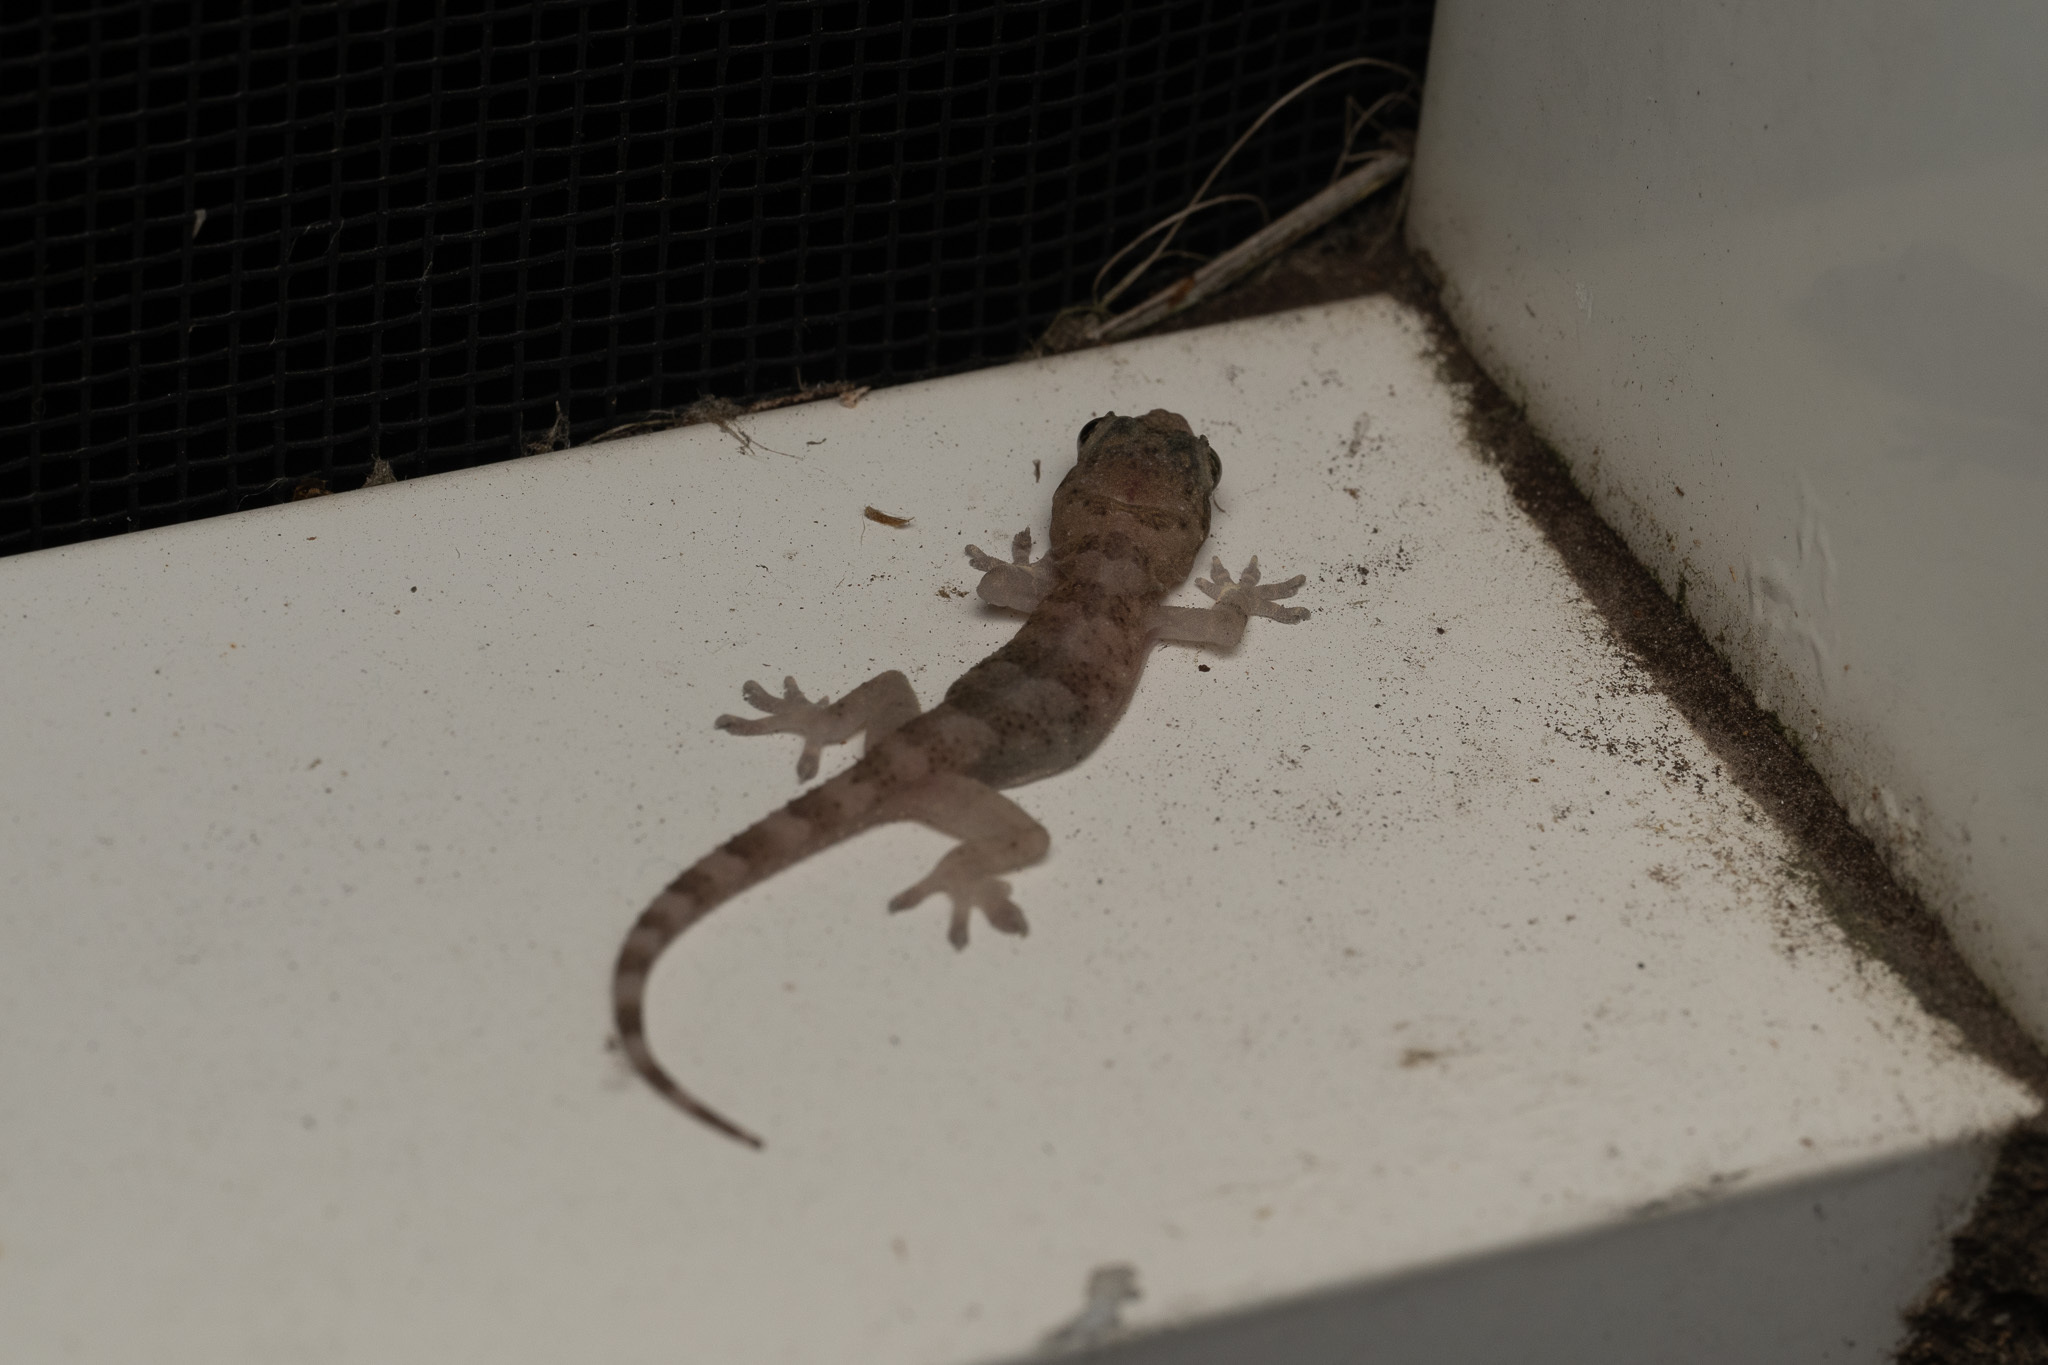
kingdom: Animalia
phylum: Chordata
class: Squamata
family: Gekkonidae
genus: Hemidactylus
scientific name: Hemidactylus mabouia
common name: House gecko
